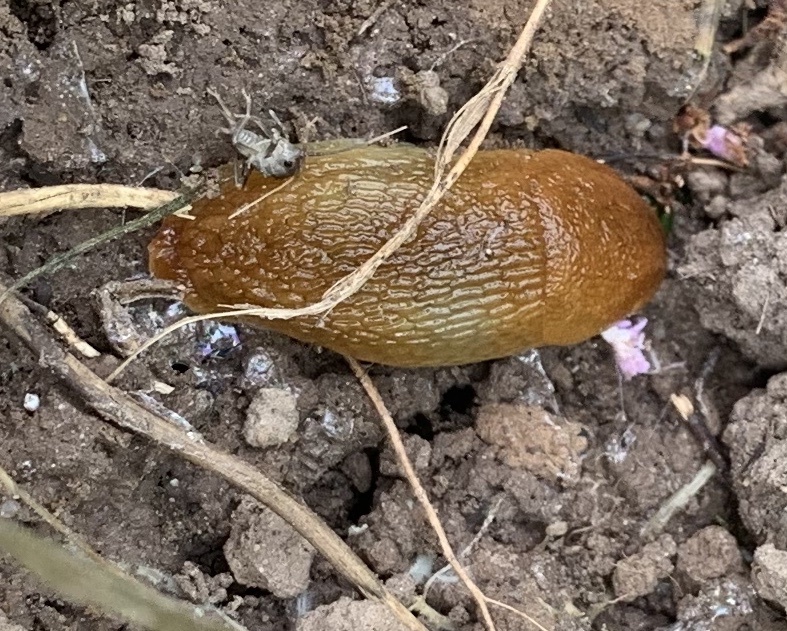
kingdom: Animalia
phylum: Mollusca
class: Gastropoda
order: Stylommatophora
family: Arionidae
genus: Arion
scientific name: Arion subfuscus
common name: Dusky arion
